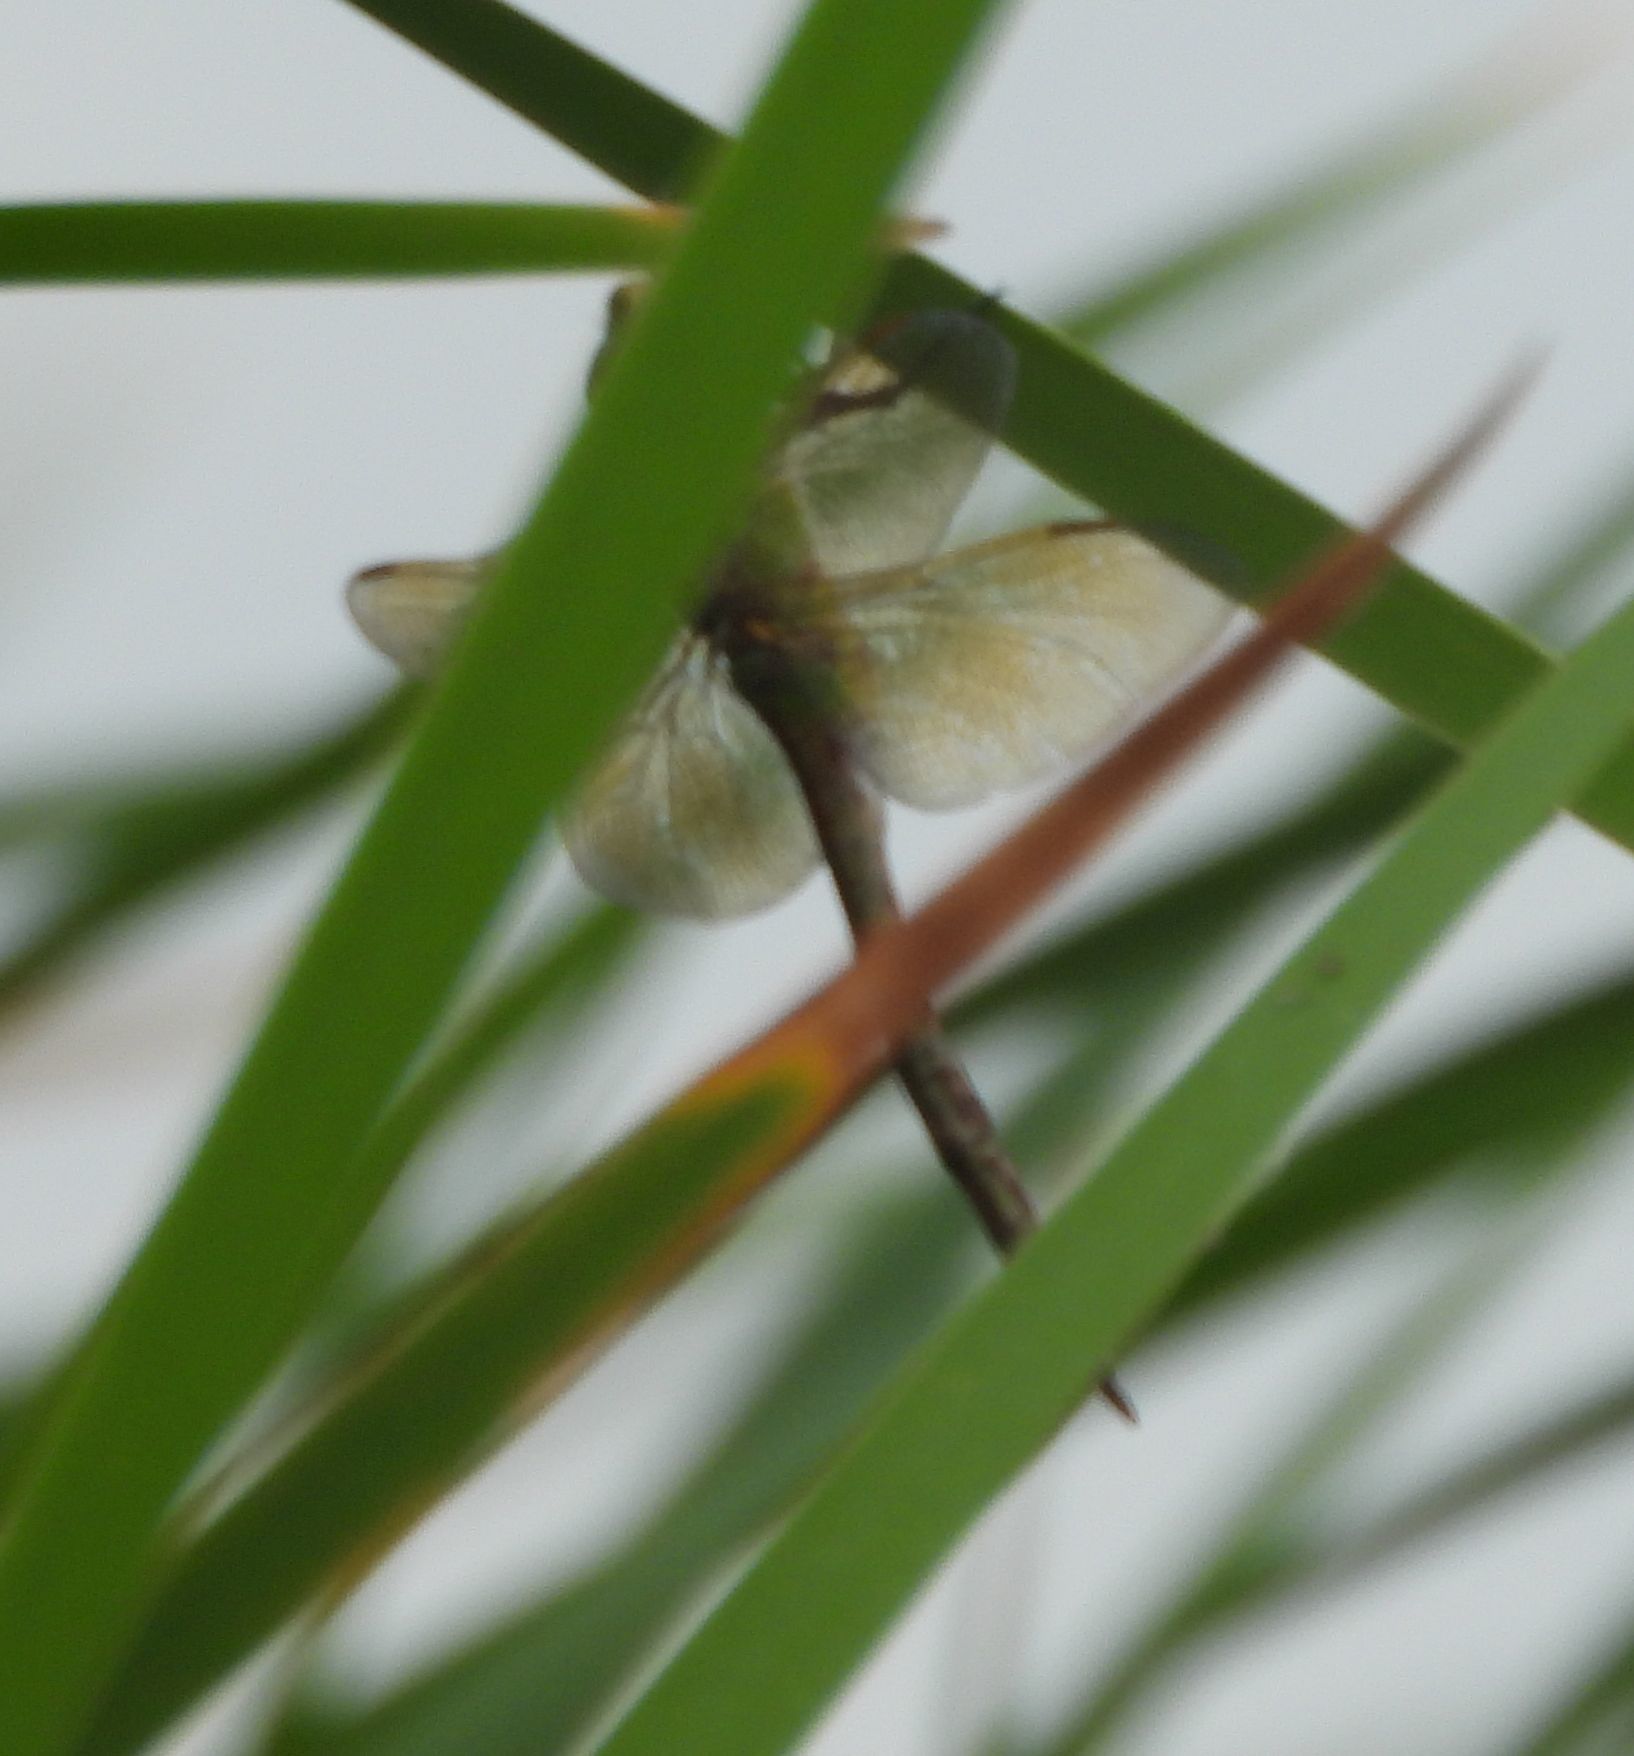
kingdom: Animalia
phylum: Arthropoda
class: Insecta
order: Odonata
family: Aeshnidae
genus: Anax
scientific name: Anax junius
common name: Common green darner
